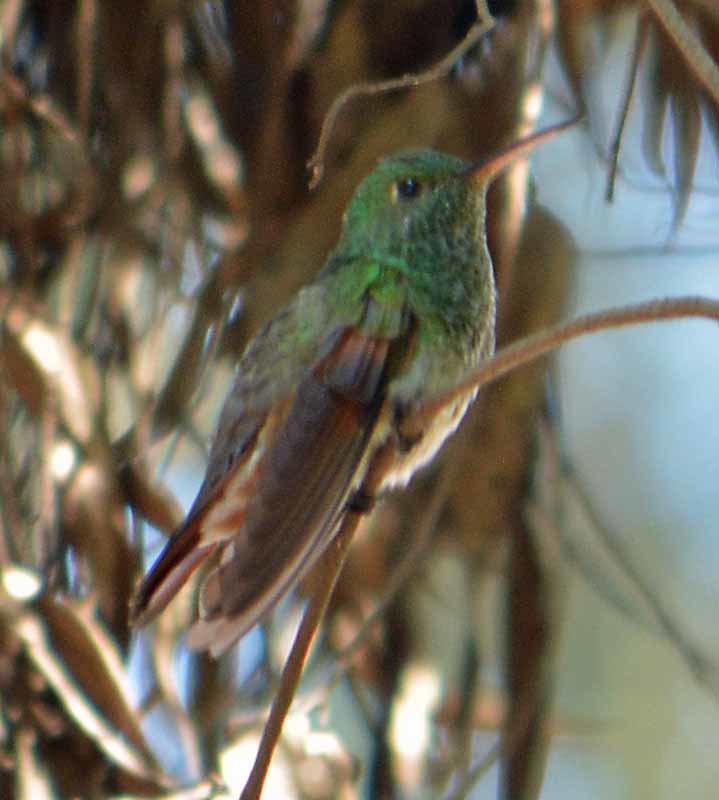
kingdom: Animalia
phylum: Chordata
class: Aves
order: Apodiformes
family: Trochilidae
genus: Saucerottia
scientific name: Saucerottia beryllina
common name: Berylline hummingbird
